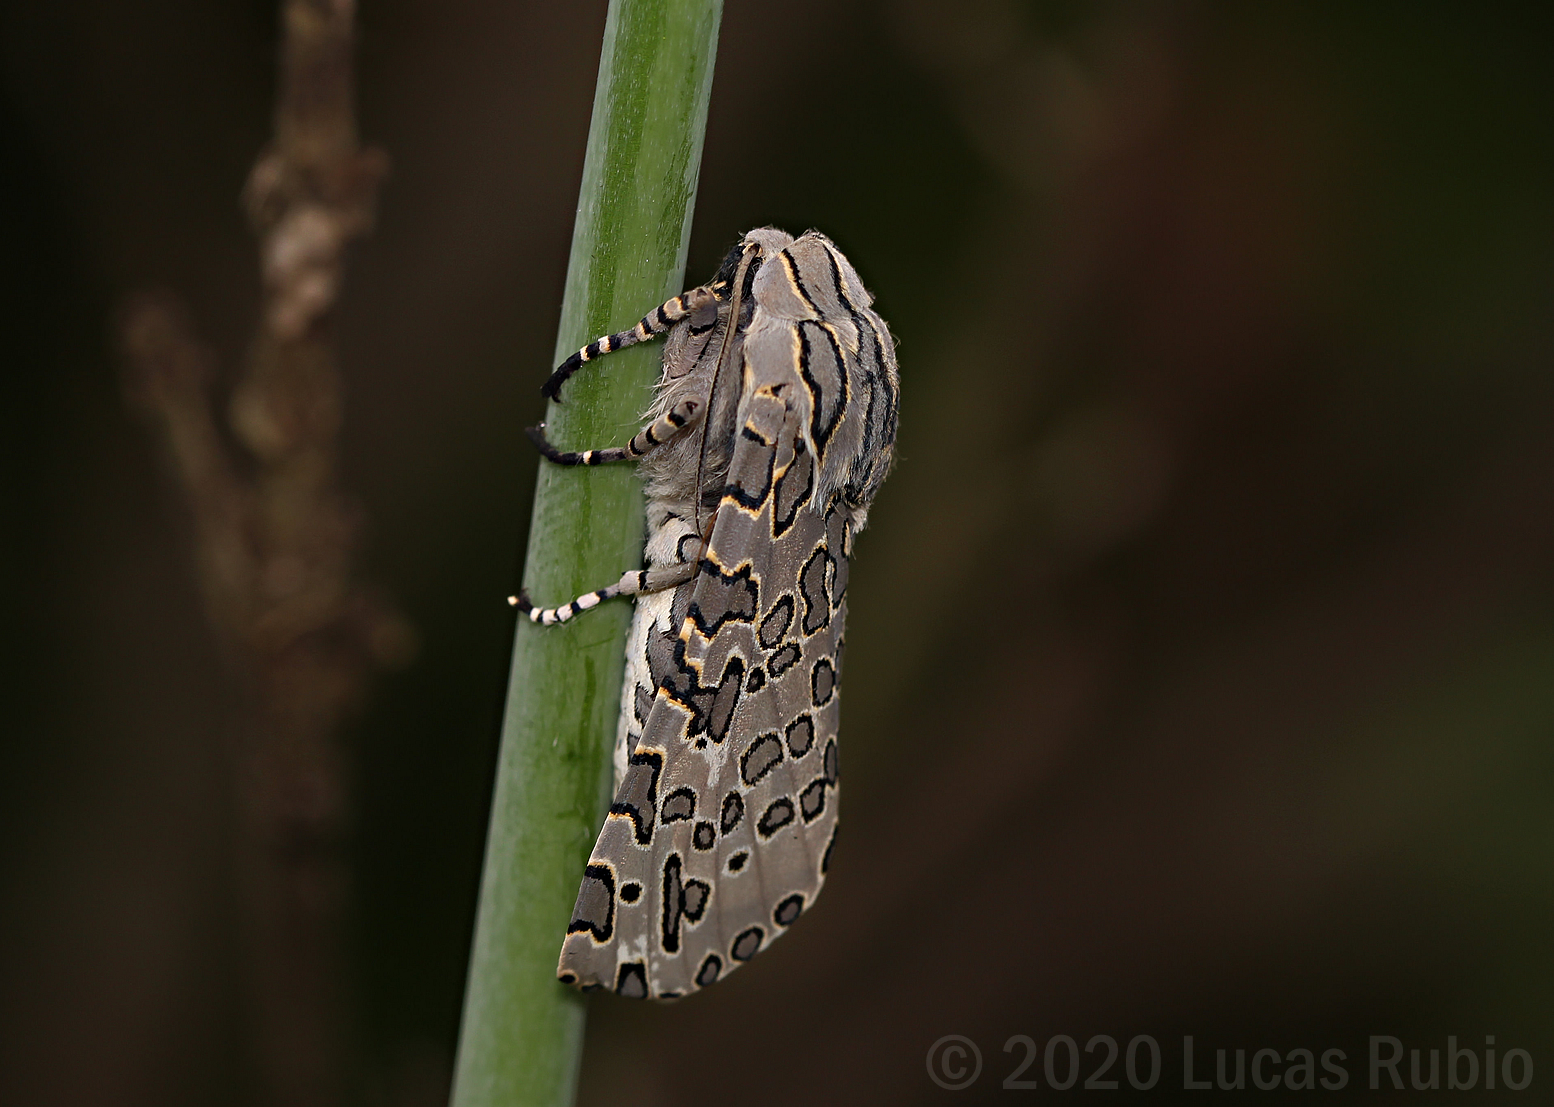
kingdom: Animalia
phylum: Arthropoda
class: Insecta
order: Lepidoptera
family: Erebidae
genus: Hypercompe
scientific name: Hypercompe indecisa
